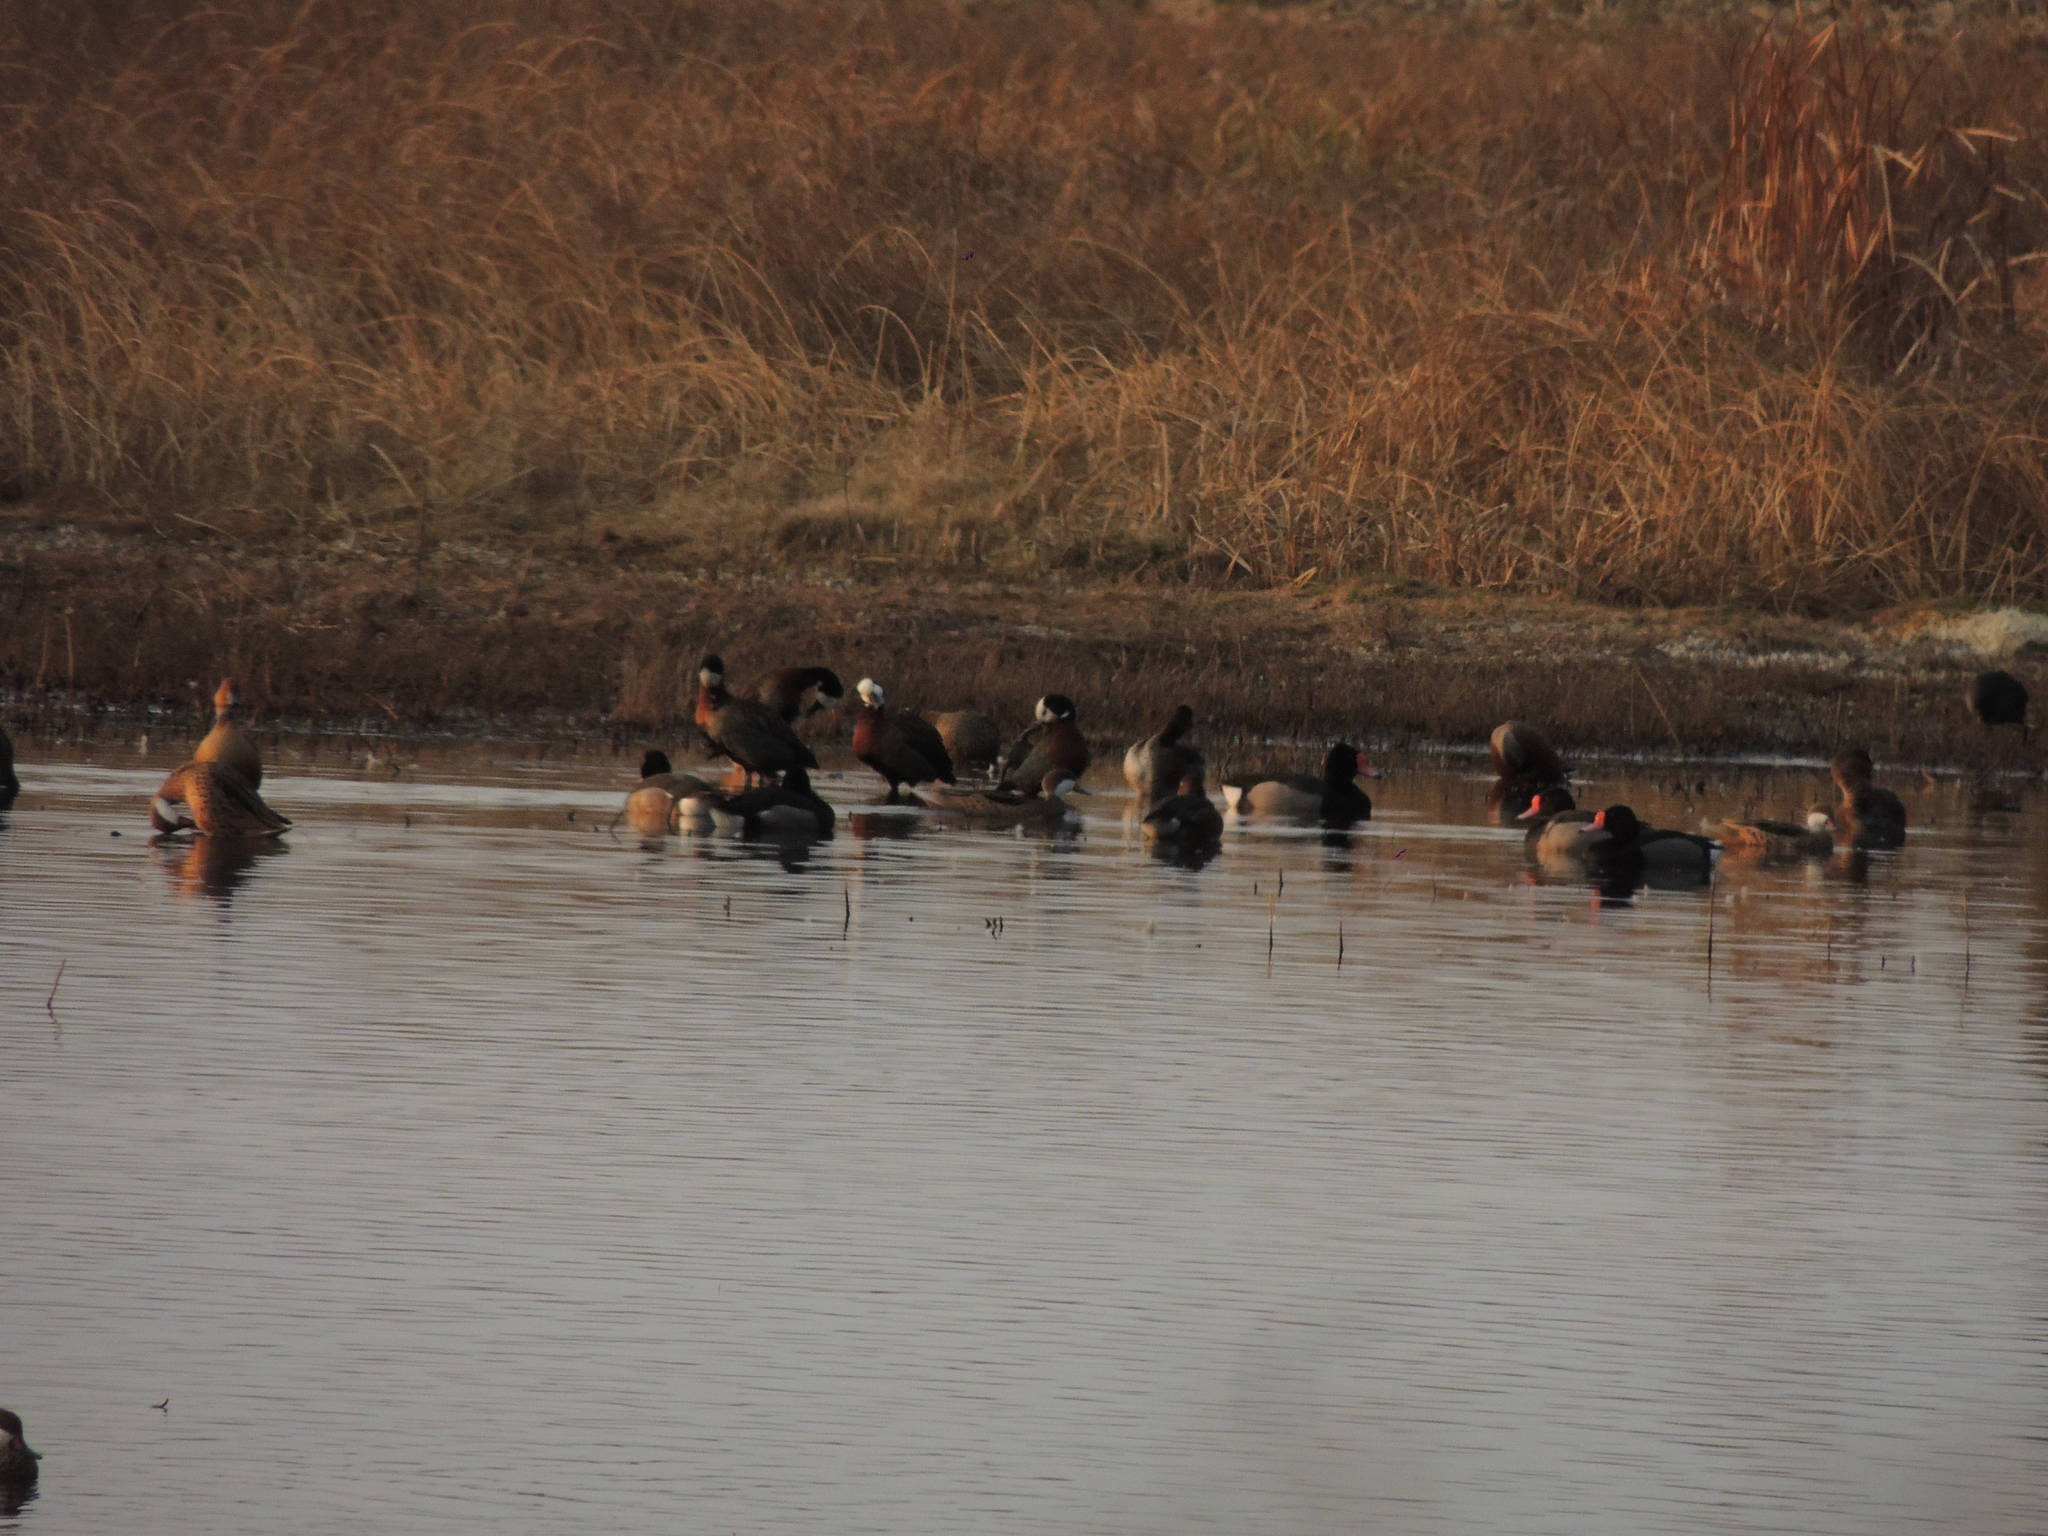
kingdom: Animalia
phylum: Chordata
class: Aves
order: Anseriformes
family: Anatidae
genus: Dendrocygna
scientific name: Dendrocygna bicolor
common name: Fulvous whistling duck
